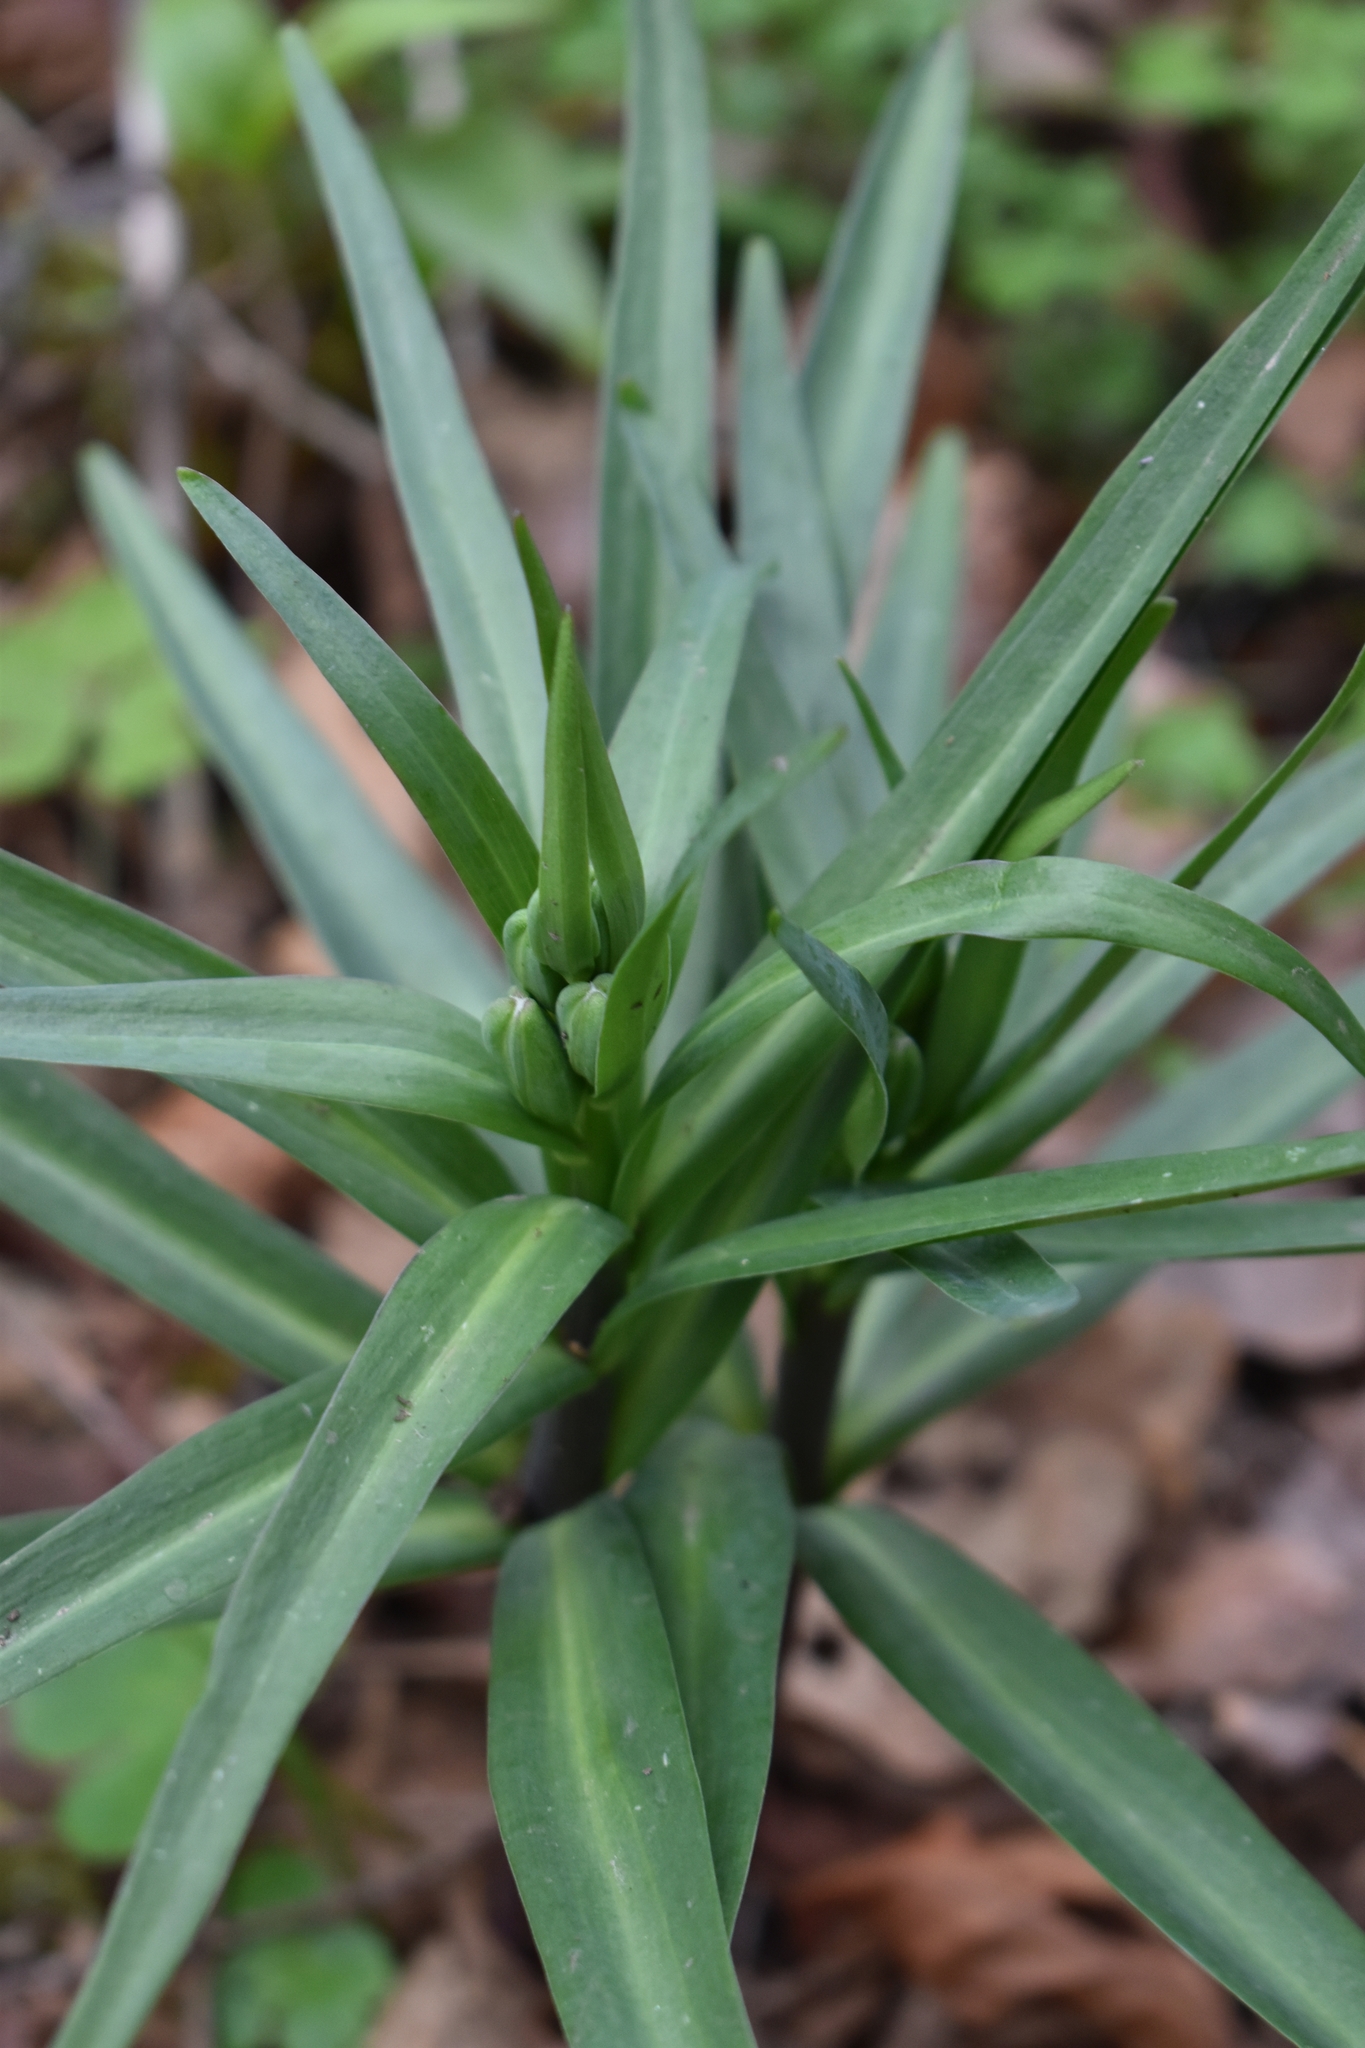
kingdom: Plantae
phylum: Tracheophyta
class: Liliopsida
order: Liliales
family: Liliaceae
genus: Fritillaria
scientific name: Fritillaria affinis
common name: Ojai fritillary
